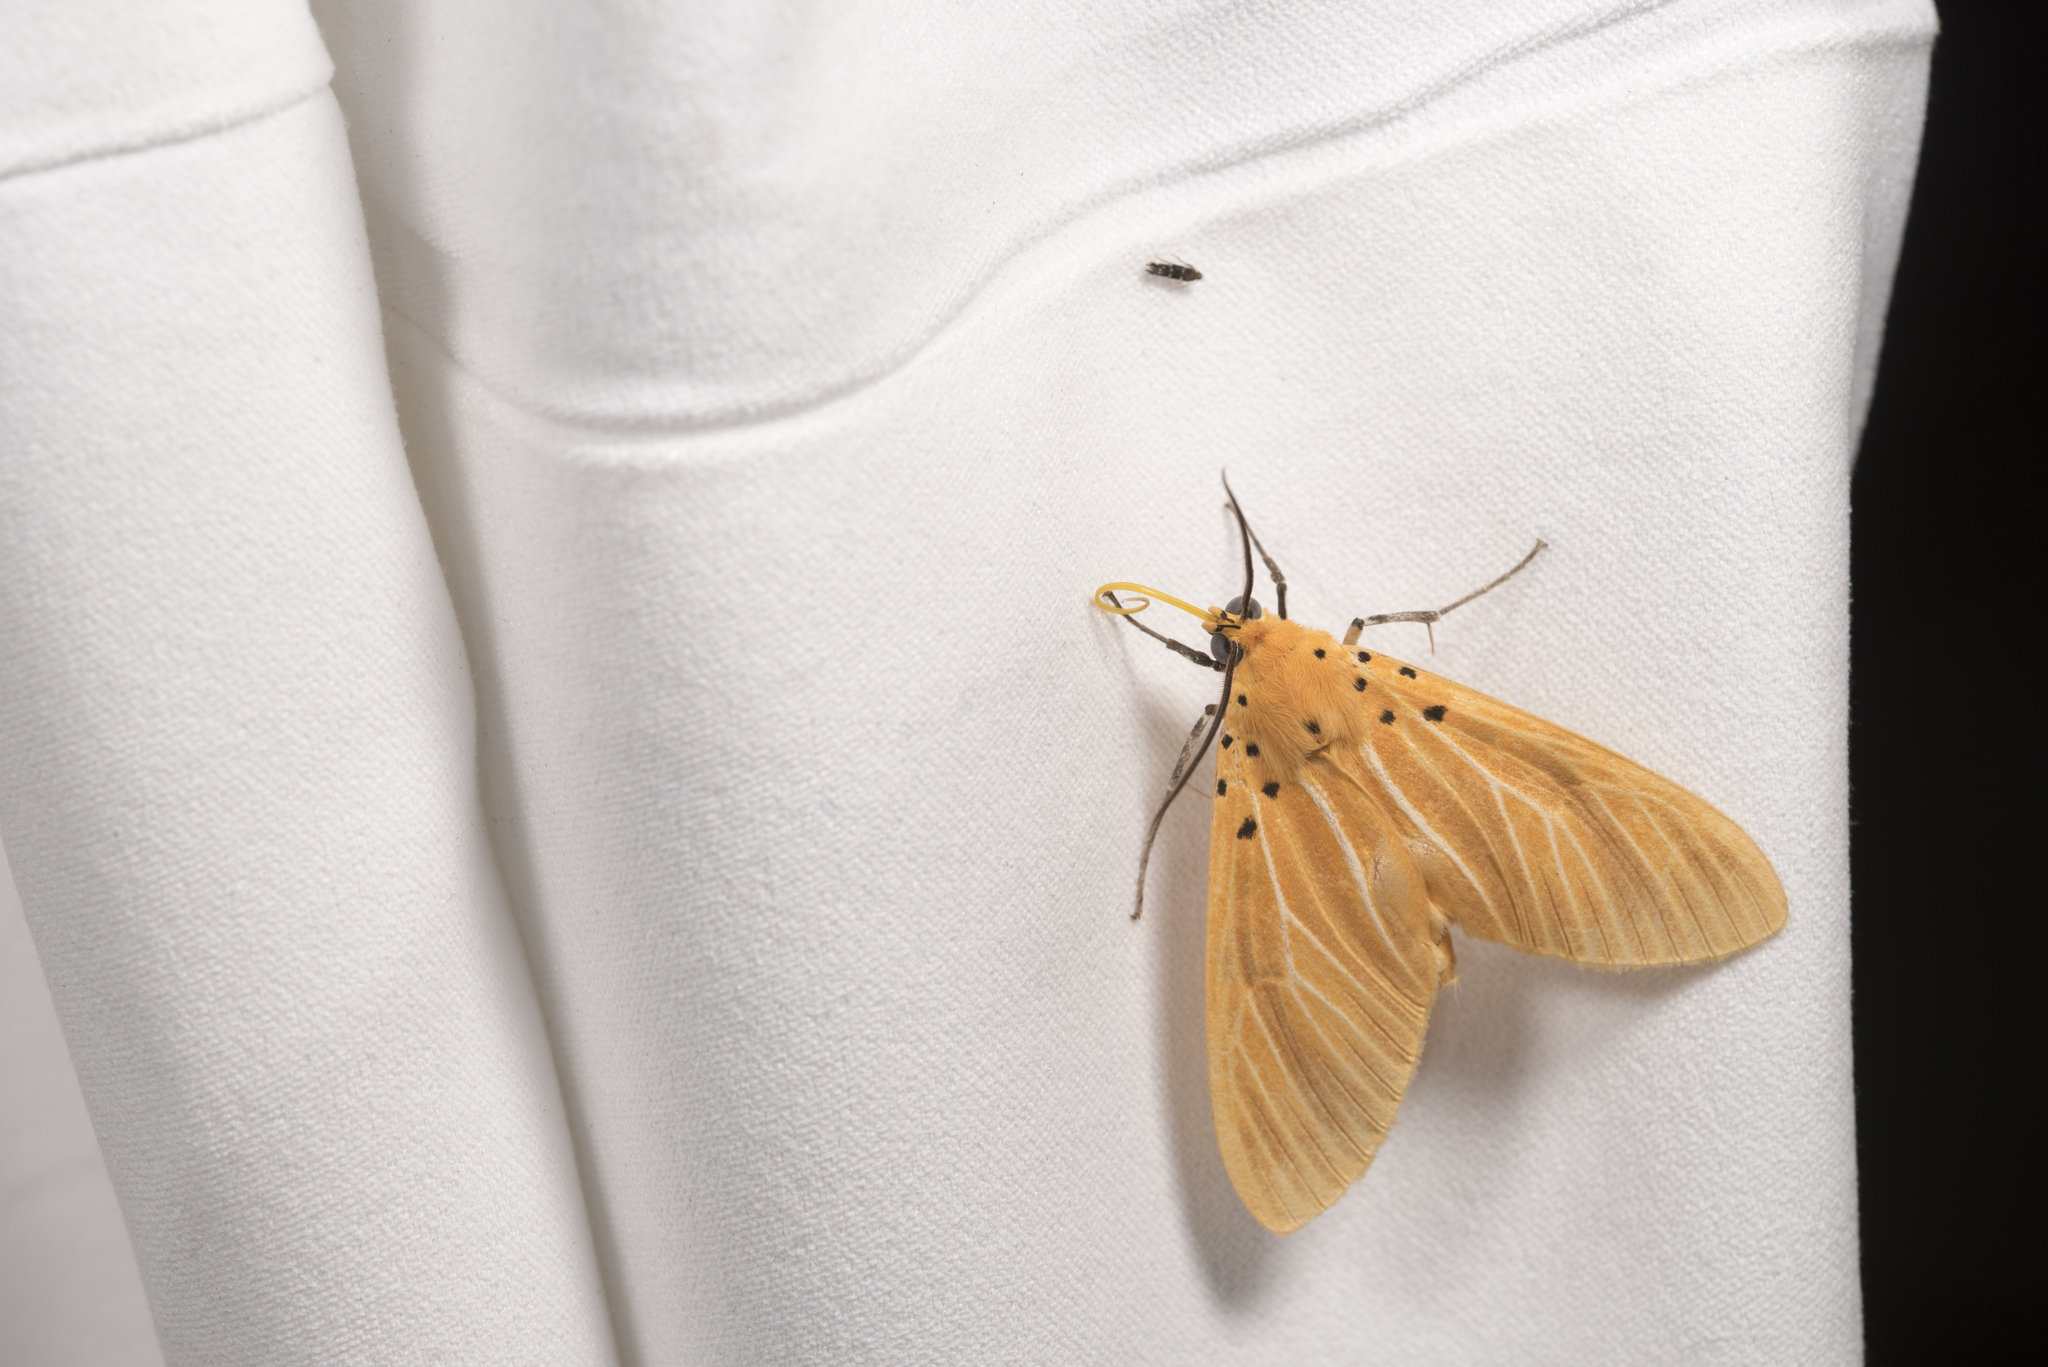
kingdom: Animalia
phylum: Arthropoda
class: Insecta
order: Lepidoptera
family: Erebidae
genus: Asota
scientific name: Asota egens
